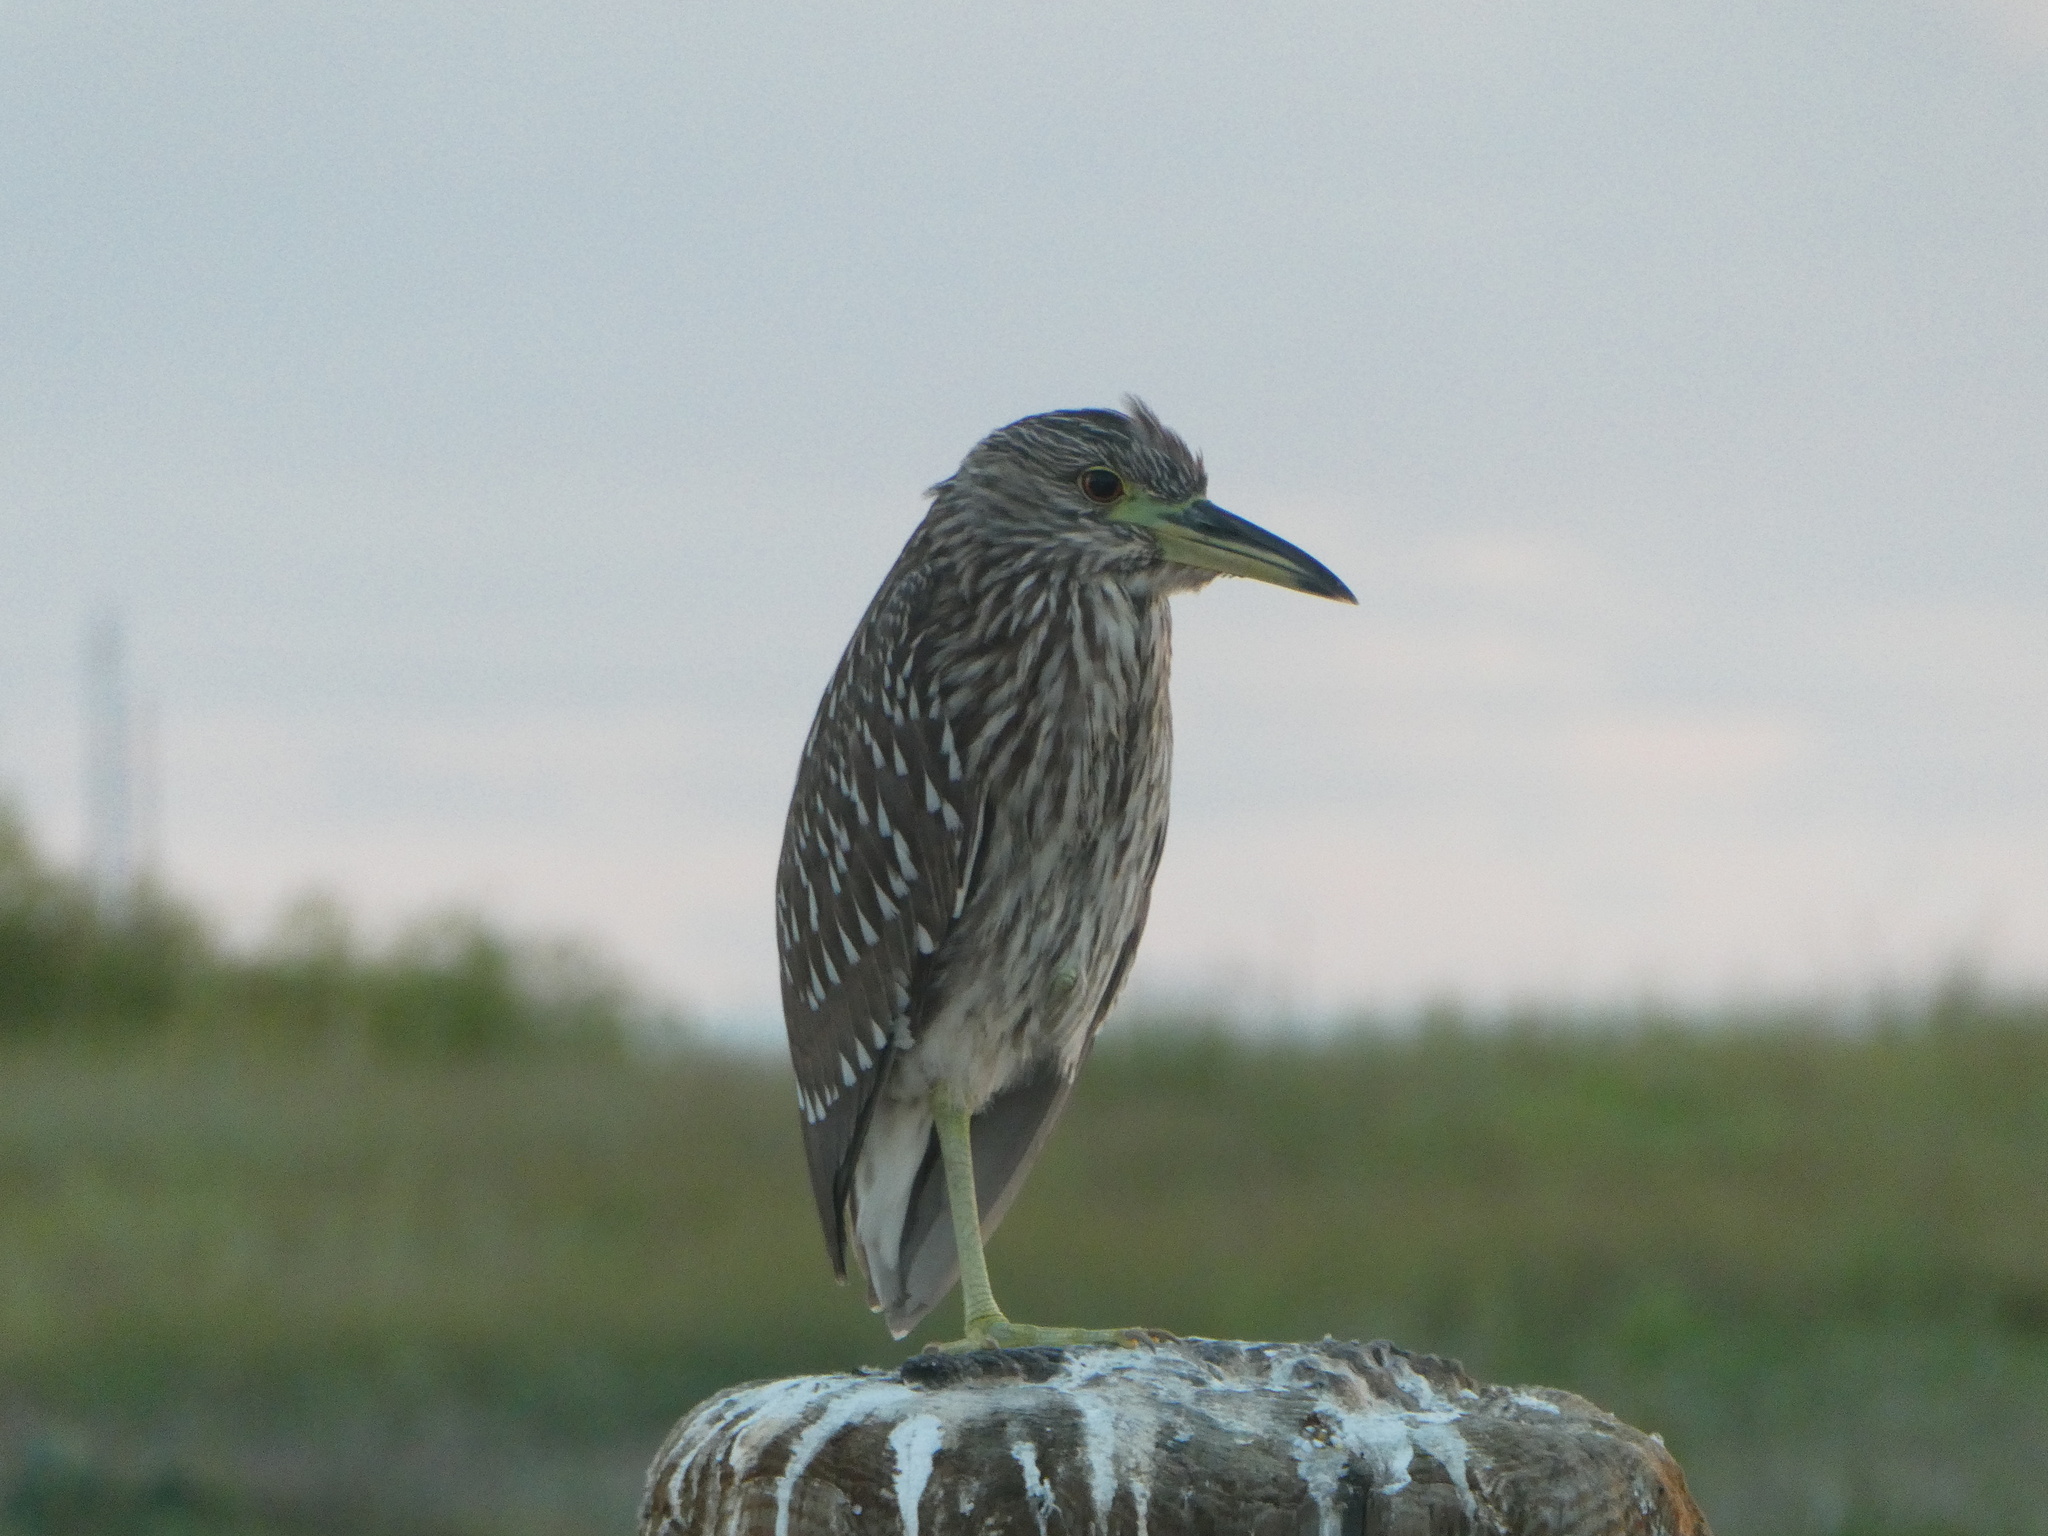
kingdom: Animalia
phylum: Chordata
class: Aves
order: Pelecaniformes
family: Ardeidae
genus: Nycticorax
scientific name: Nycticorax nycticorax
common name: Black-crowned night heron
